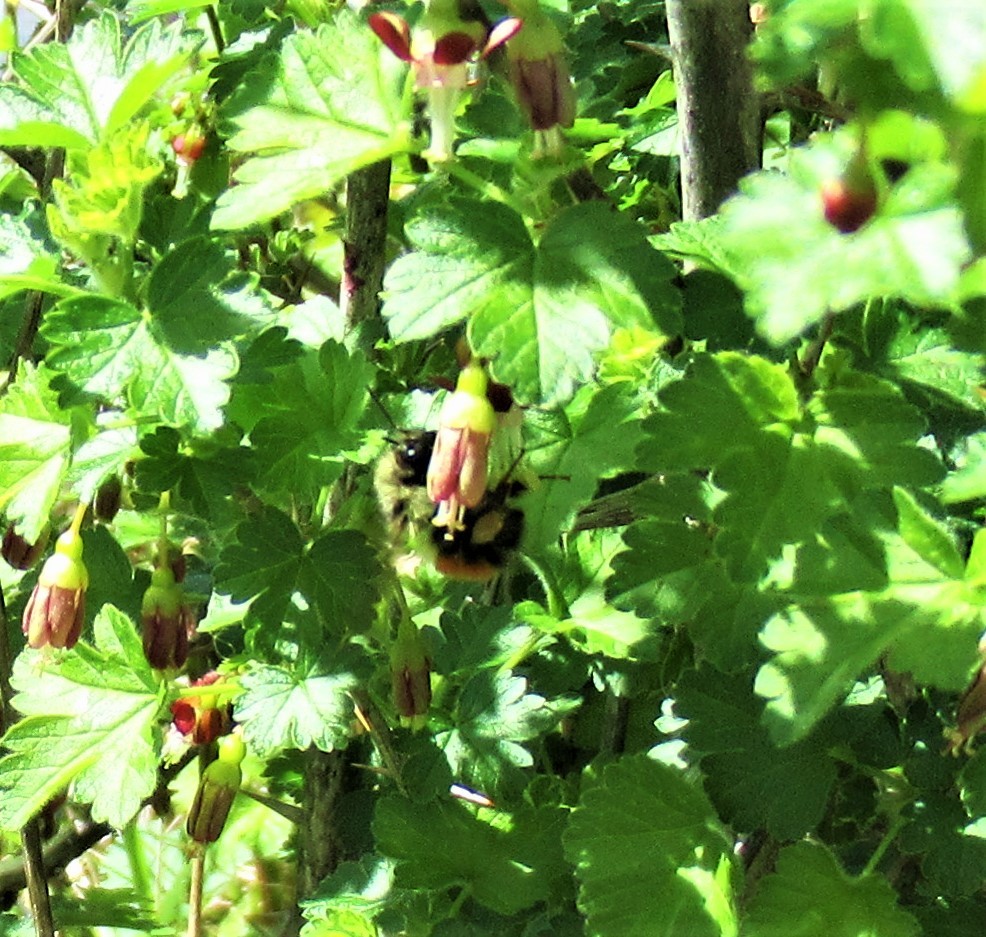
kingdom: Animalia
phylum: Arthropoda
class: Insecta
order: Hymenoptera
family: Apidae
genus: Bombus
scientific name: Bombus melanopygus
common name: Black tail bumble bee
